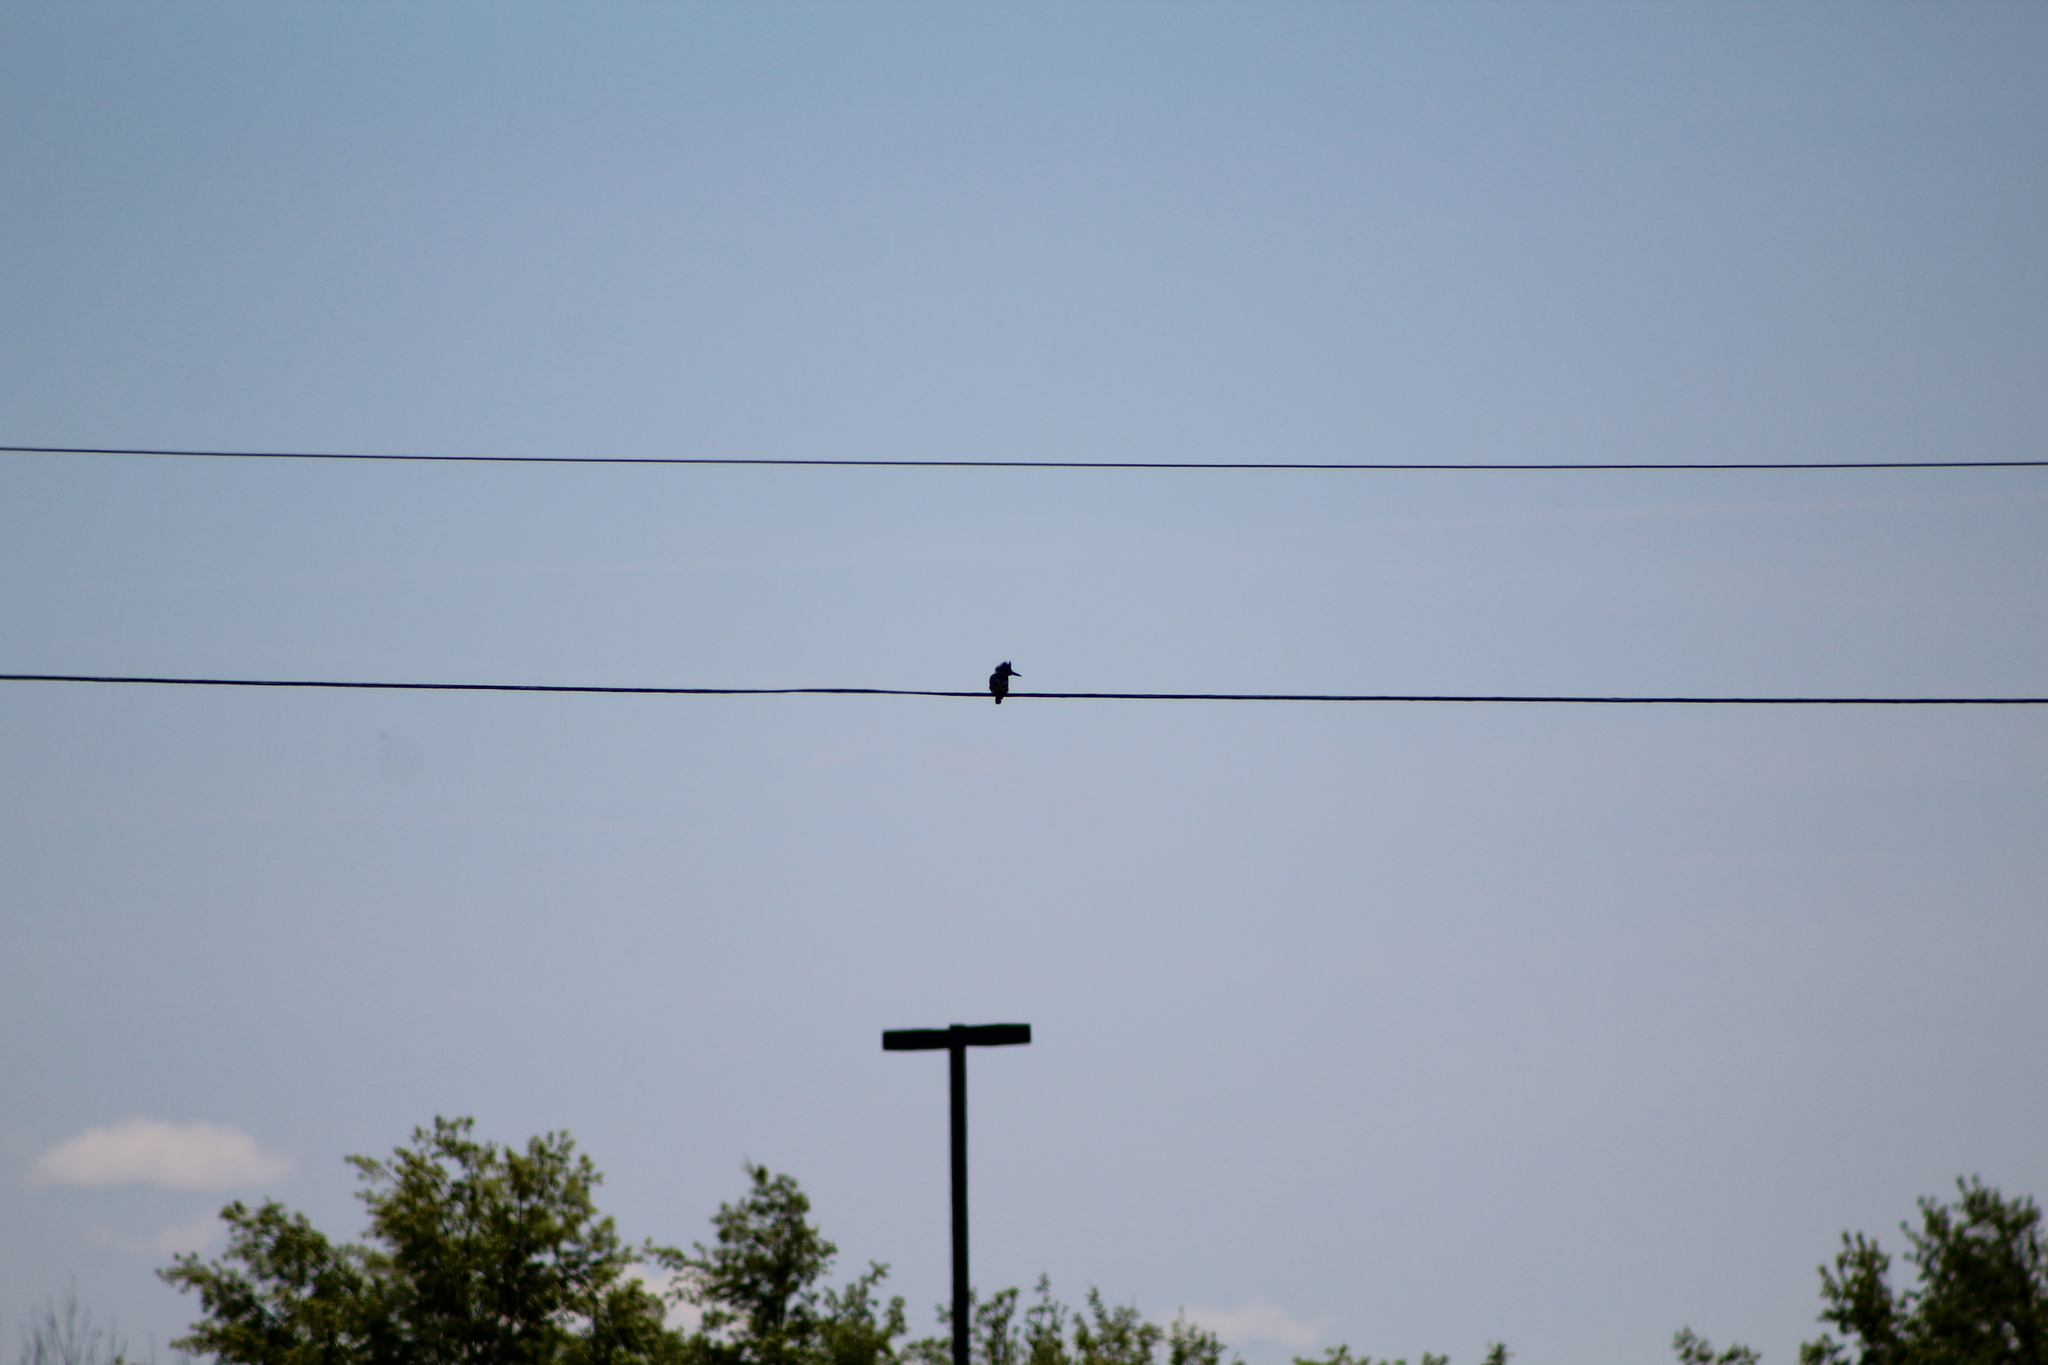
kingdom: Animalia
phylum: Chordata
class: Aves
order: Coraciiformes
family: Alcedinidae
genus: Megaceryle
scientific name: Megaceryle alcyon
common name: Belted kingfisher
